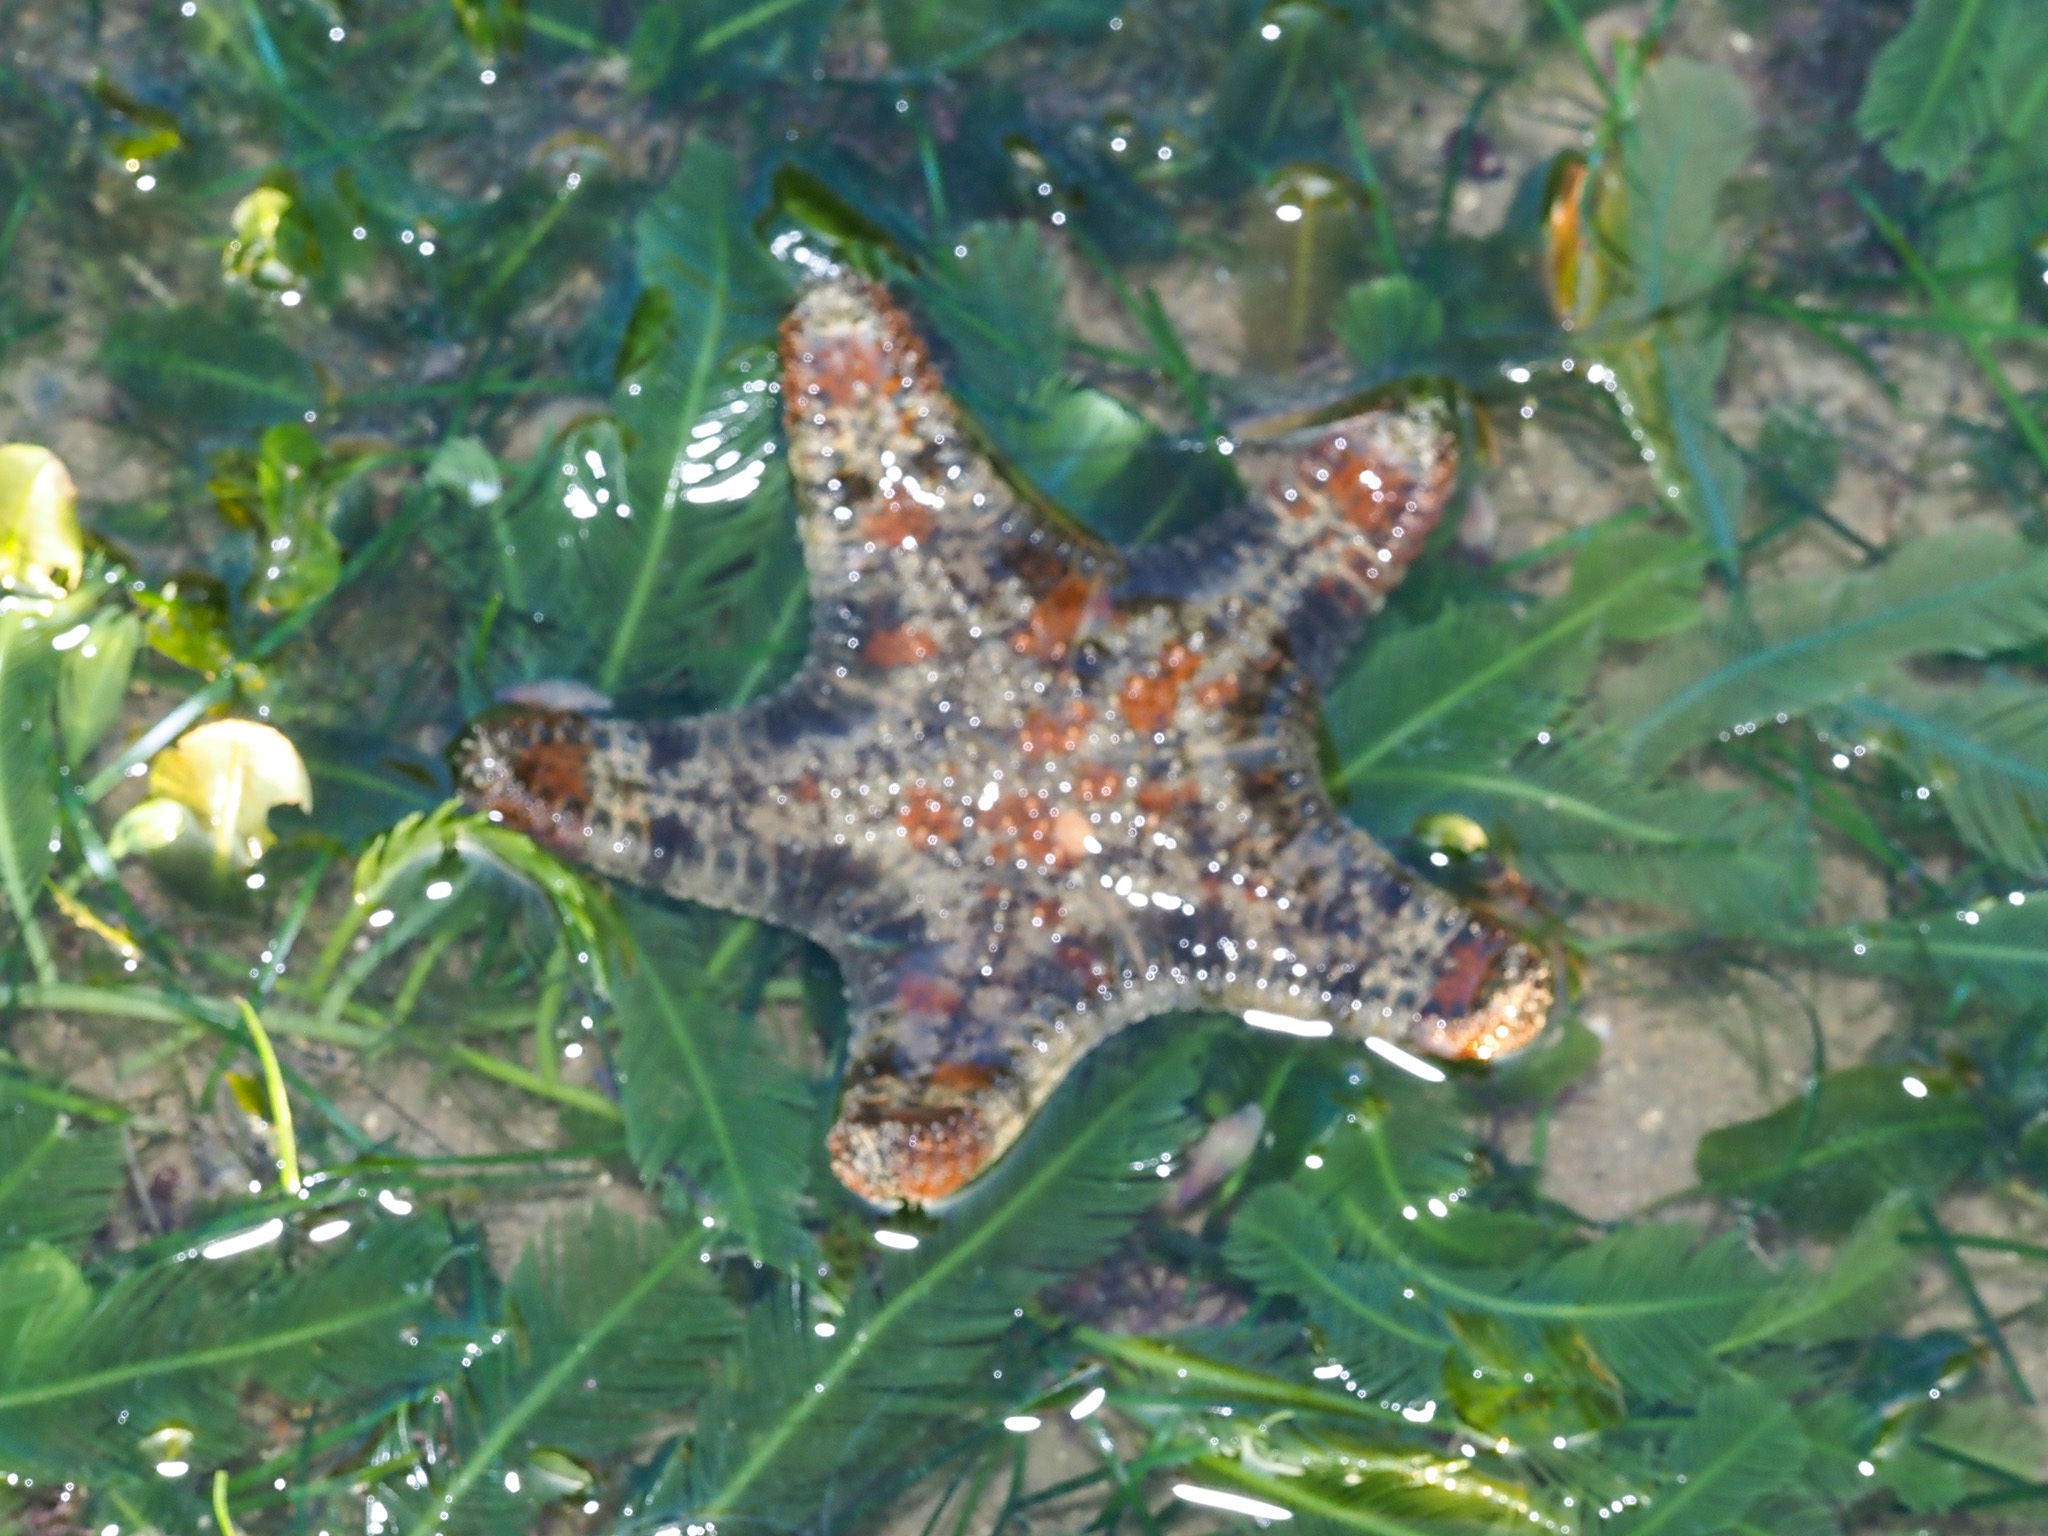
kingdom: Animalia
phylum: Echinodermata
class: Asteroidea
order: Valvatida
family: Oreasteridae
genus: Anthenea
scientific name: Anthenea aspera
